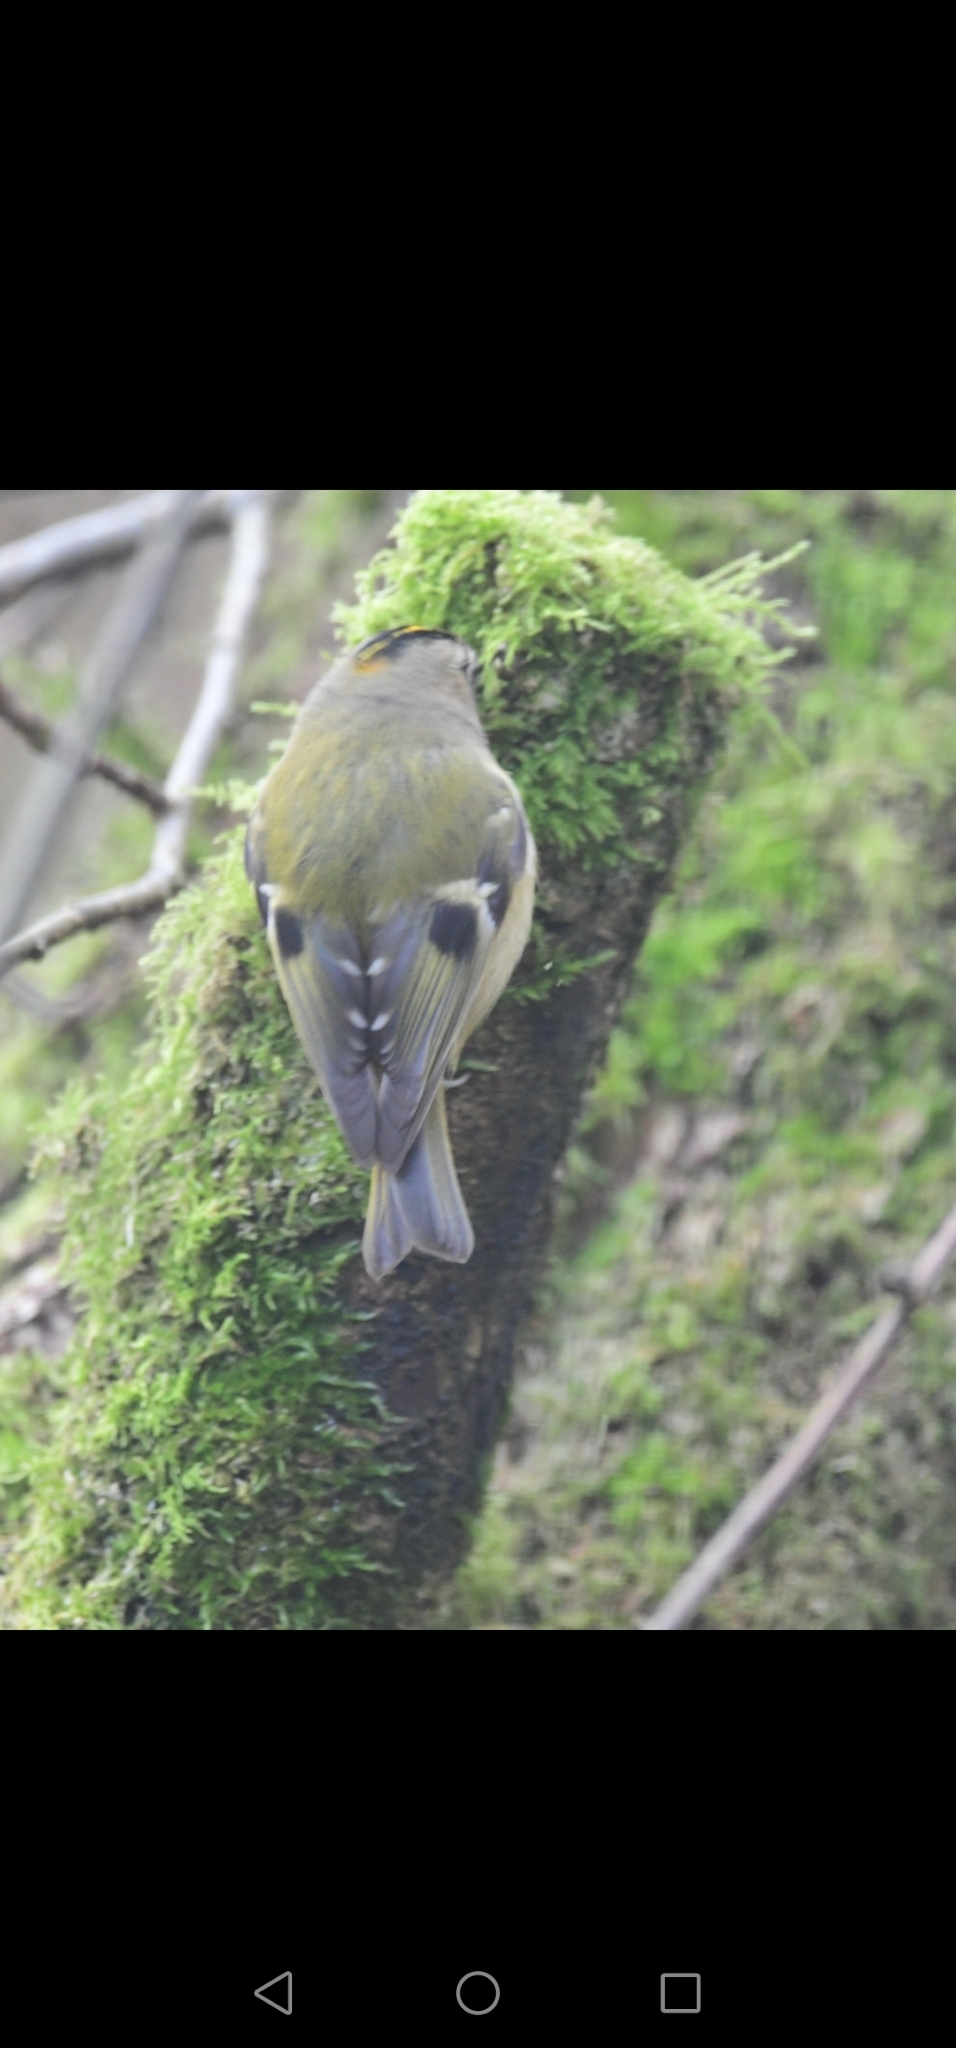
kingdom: Animalia
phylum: Chordata
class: Aves
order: Passeriformes
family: Regulidae
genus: Regulus
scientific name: Regulus regulus
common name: Goldcrest
